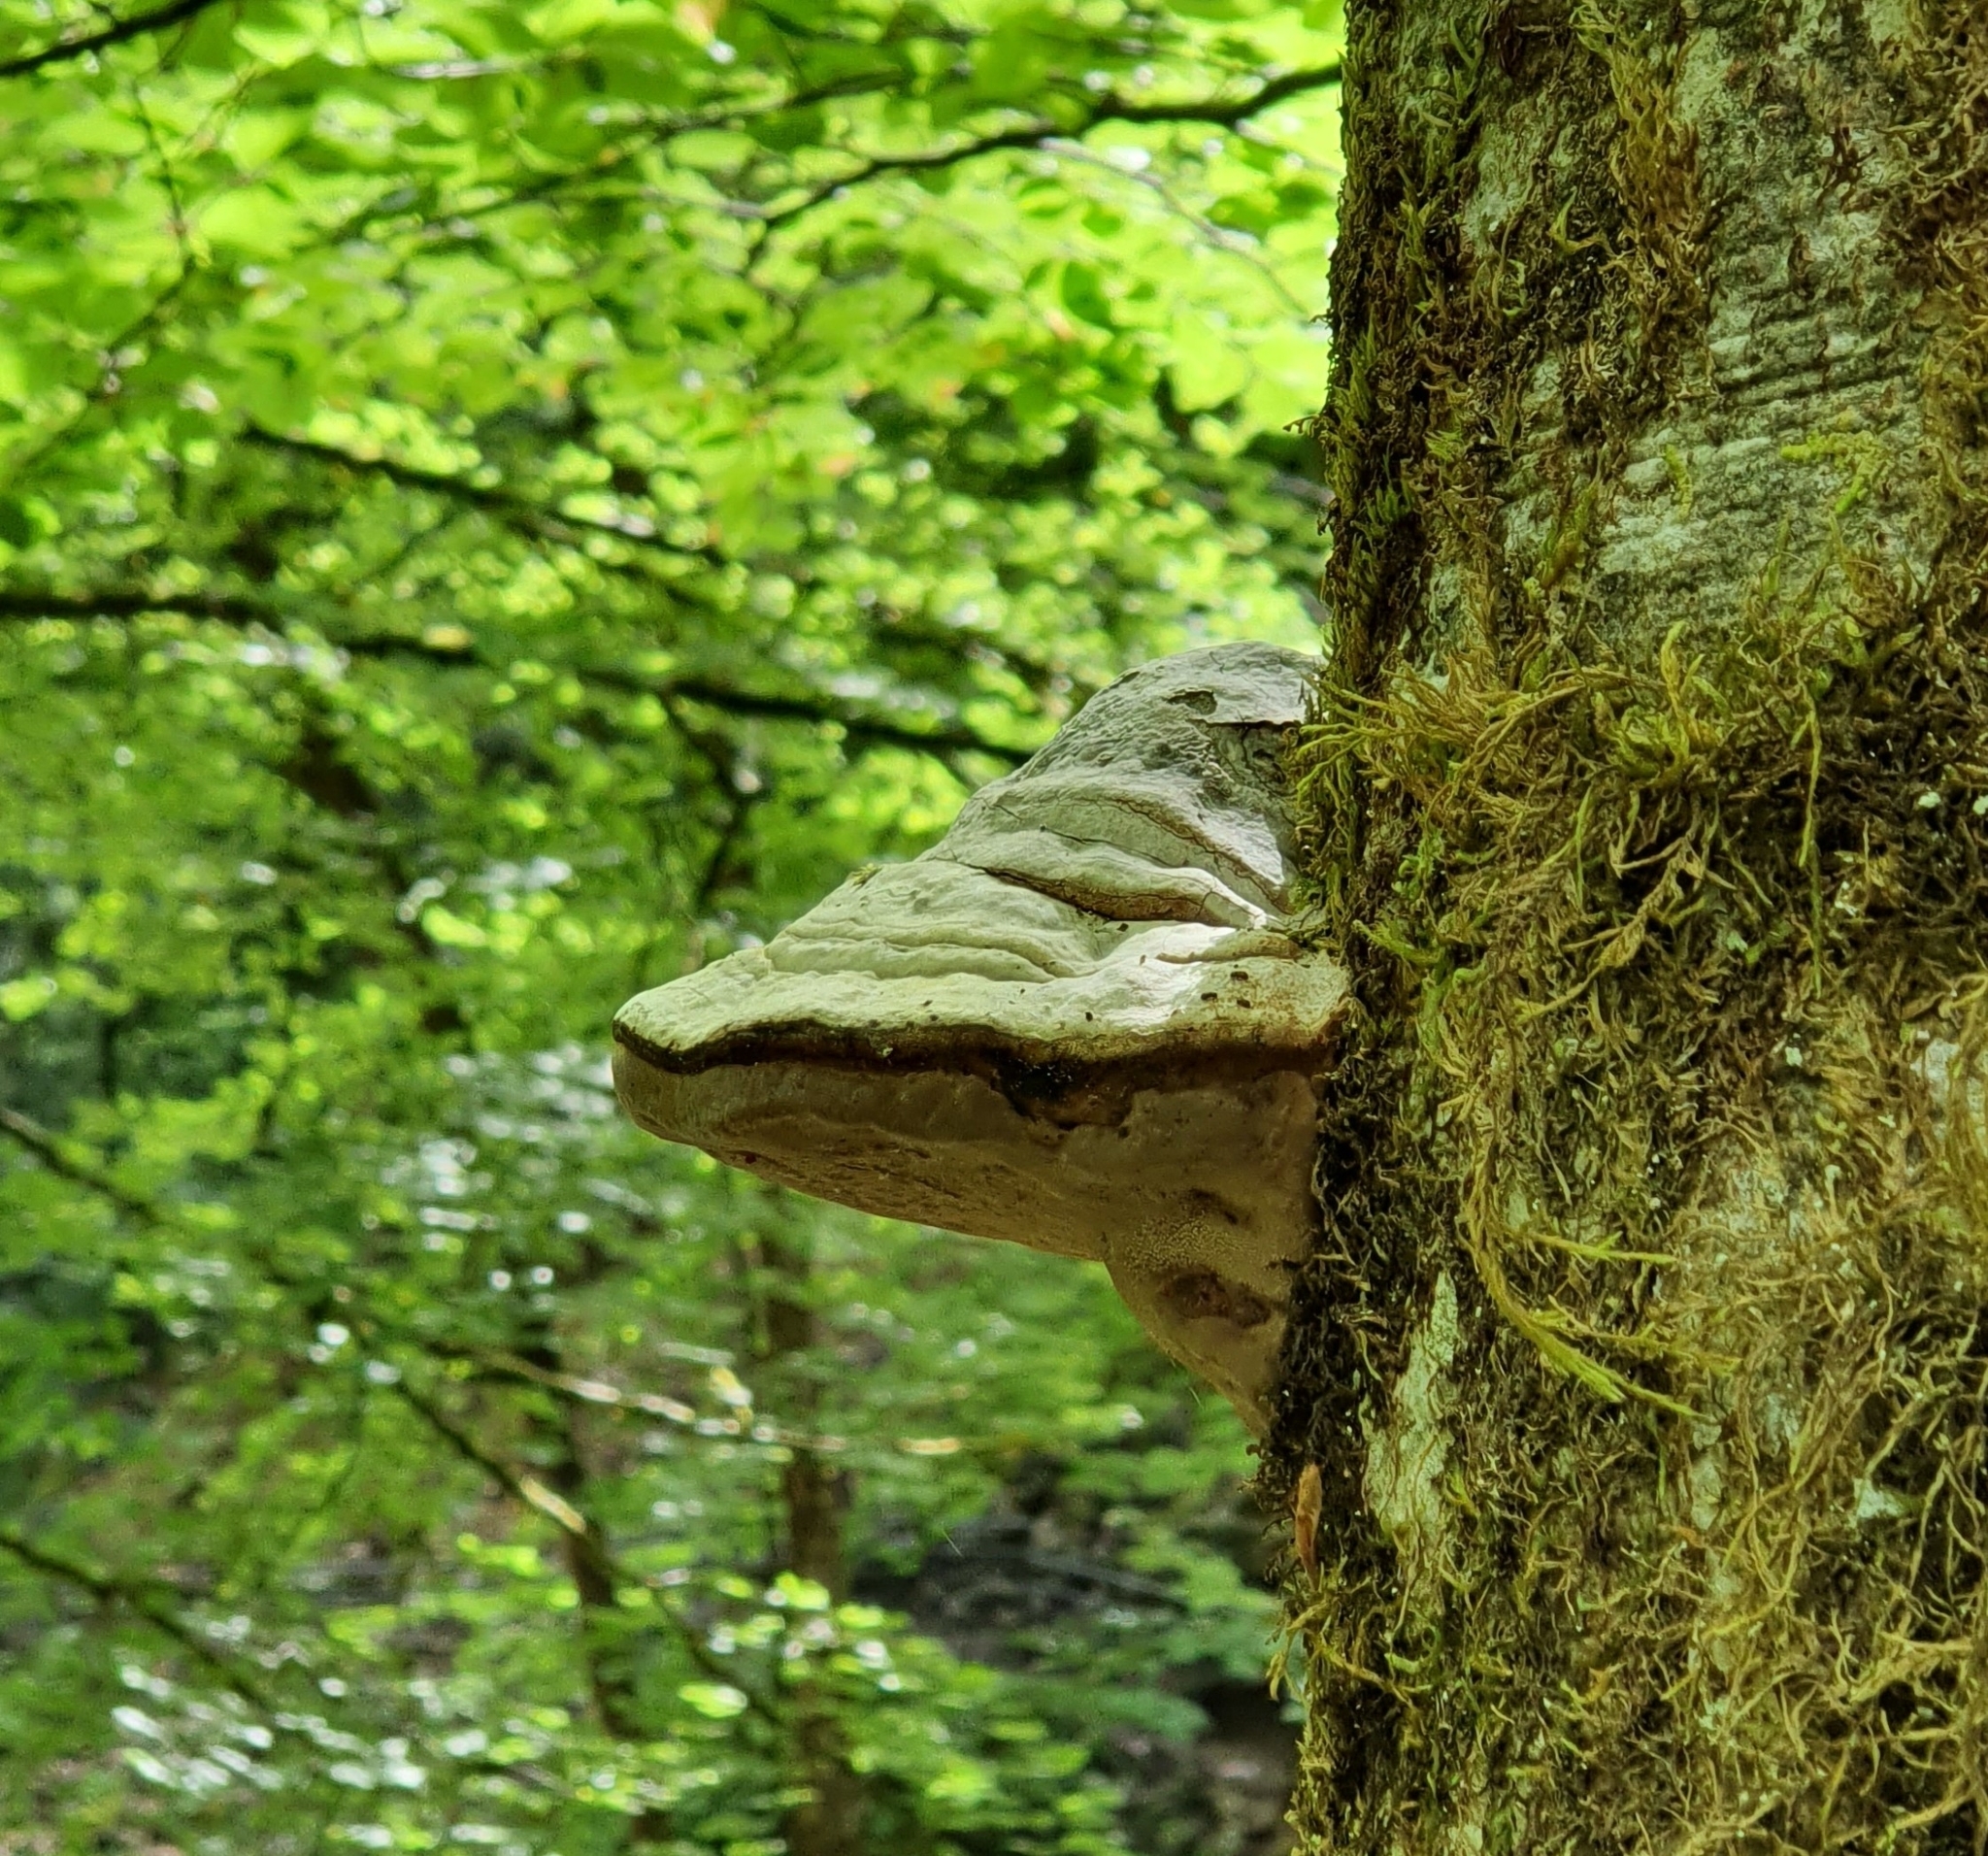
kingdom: Fungi
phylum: Basidiomycota
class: Agaricomycetes
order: Polyporales
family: Polyporaceae
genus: Fomes
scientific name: Fomes fomentarius
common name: Hoof fungus
